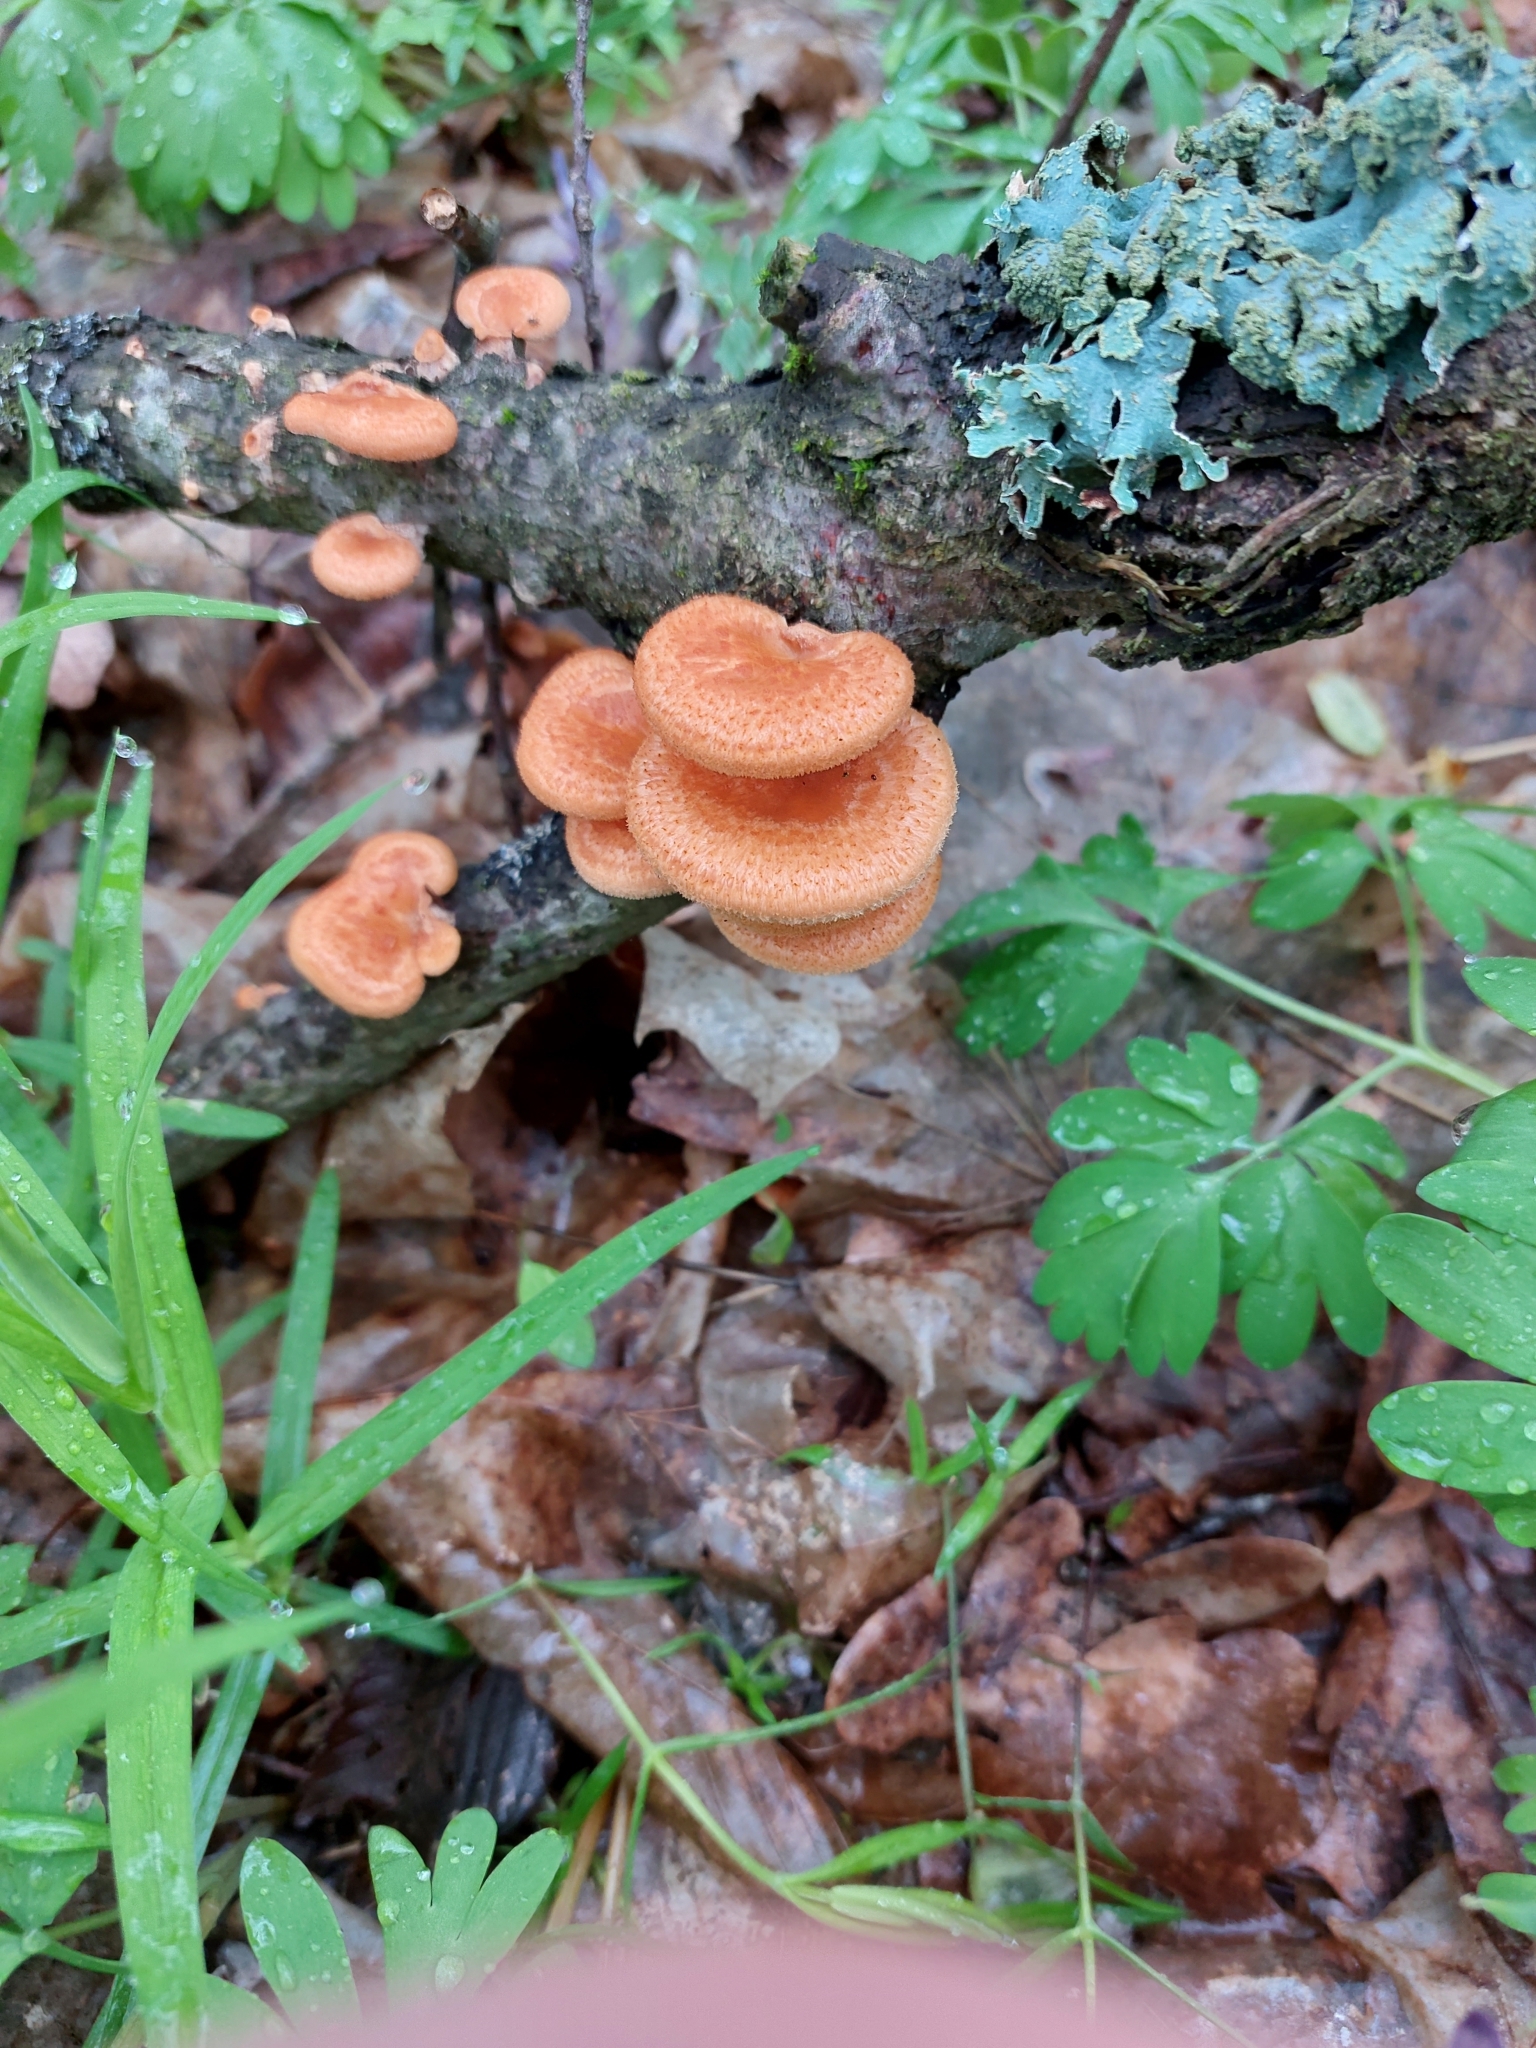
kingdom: Fungi
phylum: Basidiomycota
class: Agaricomycetes
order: Polyporales
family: Polyporaceae
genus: Neofavolus
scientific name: Neofavolus alveolaris
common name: Hexagonal-pored polypore
